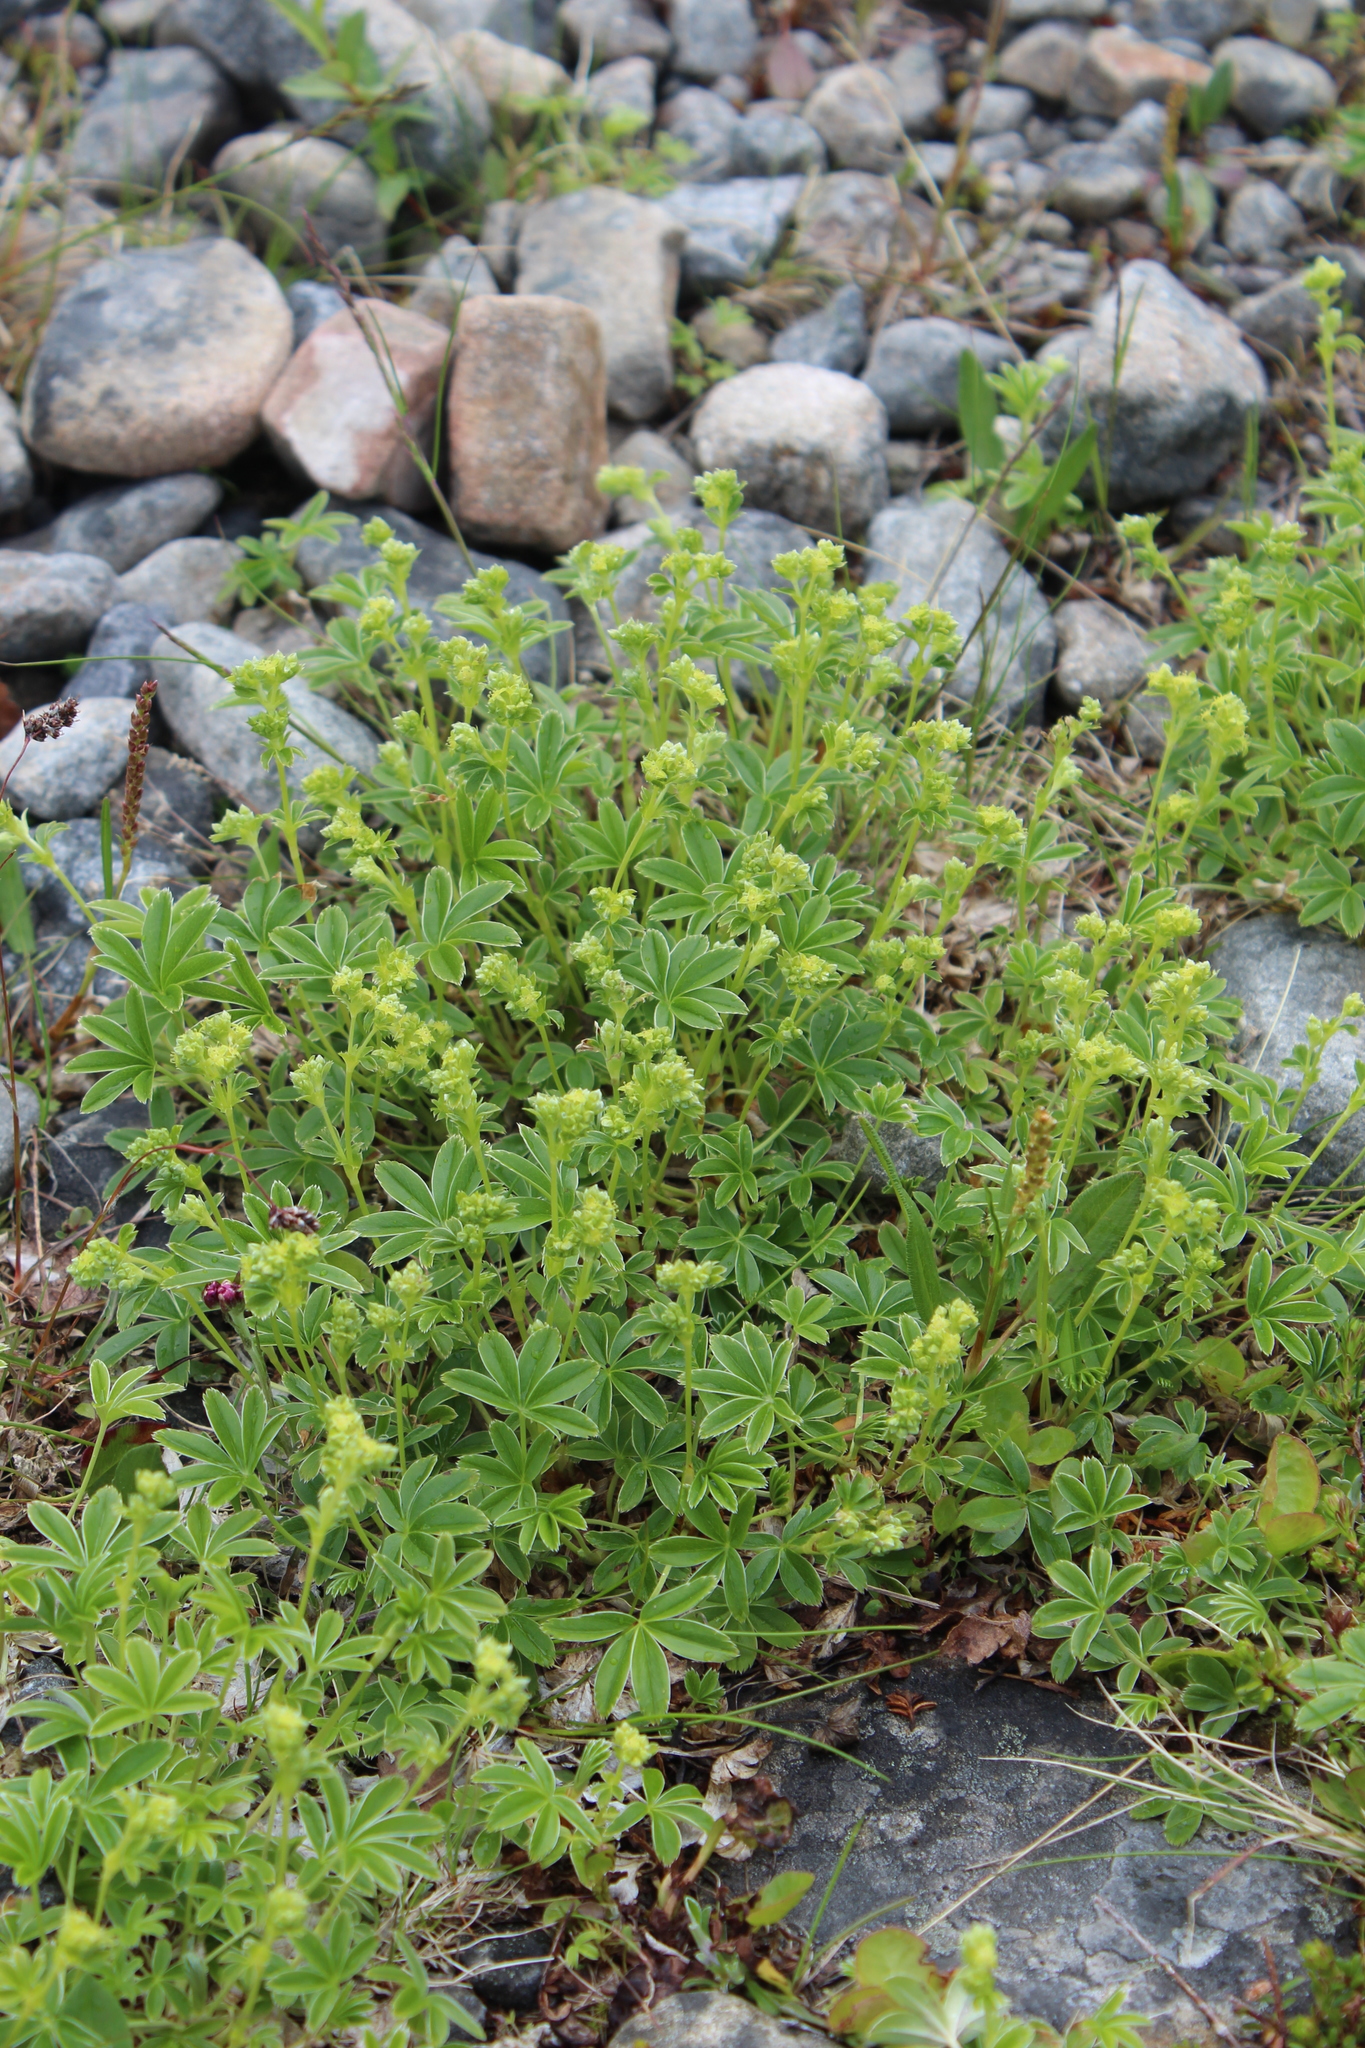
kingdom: Plantae
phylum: Tracheophyta
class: Magnoliopsida
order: Rosales
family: Rosaceae
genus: Alchemilla
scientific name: Alchemilla alpina
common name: Alpine lady's-mantle
